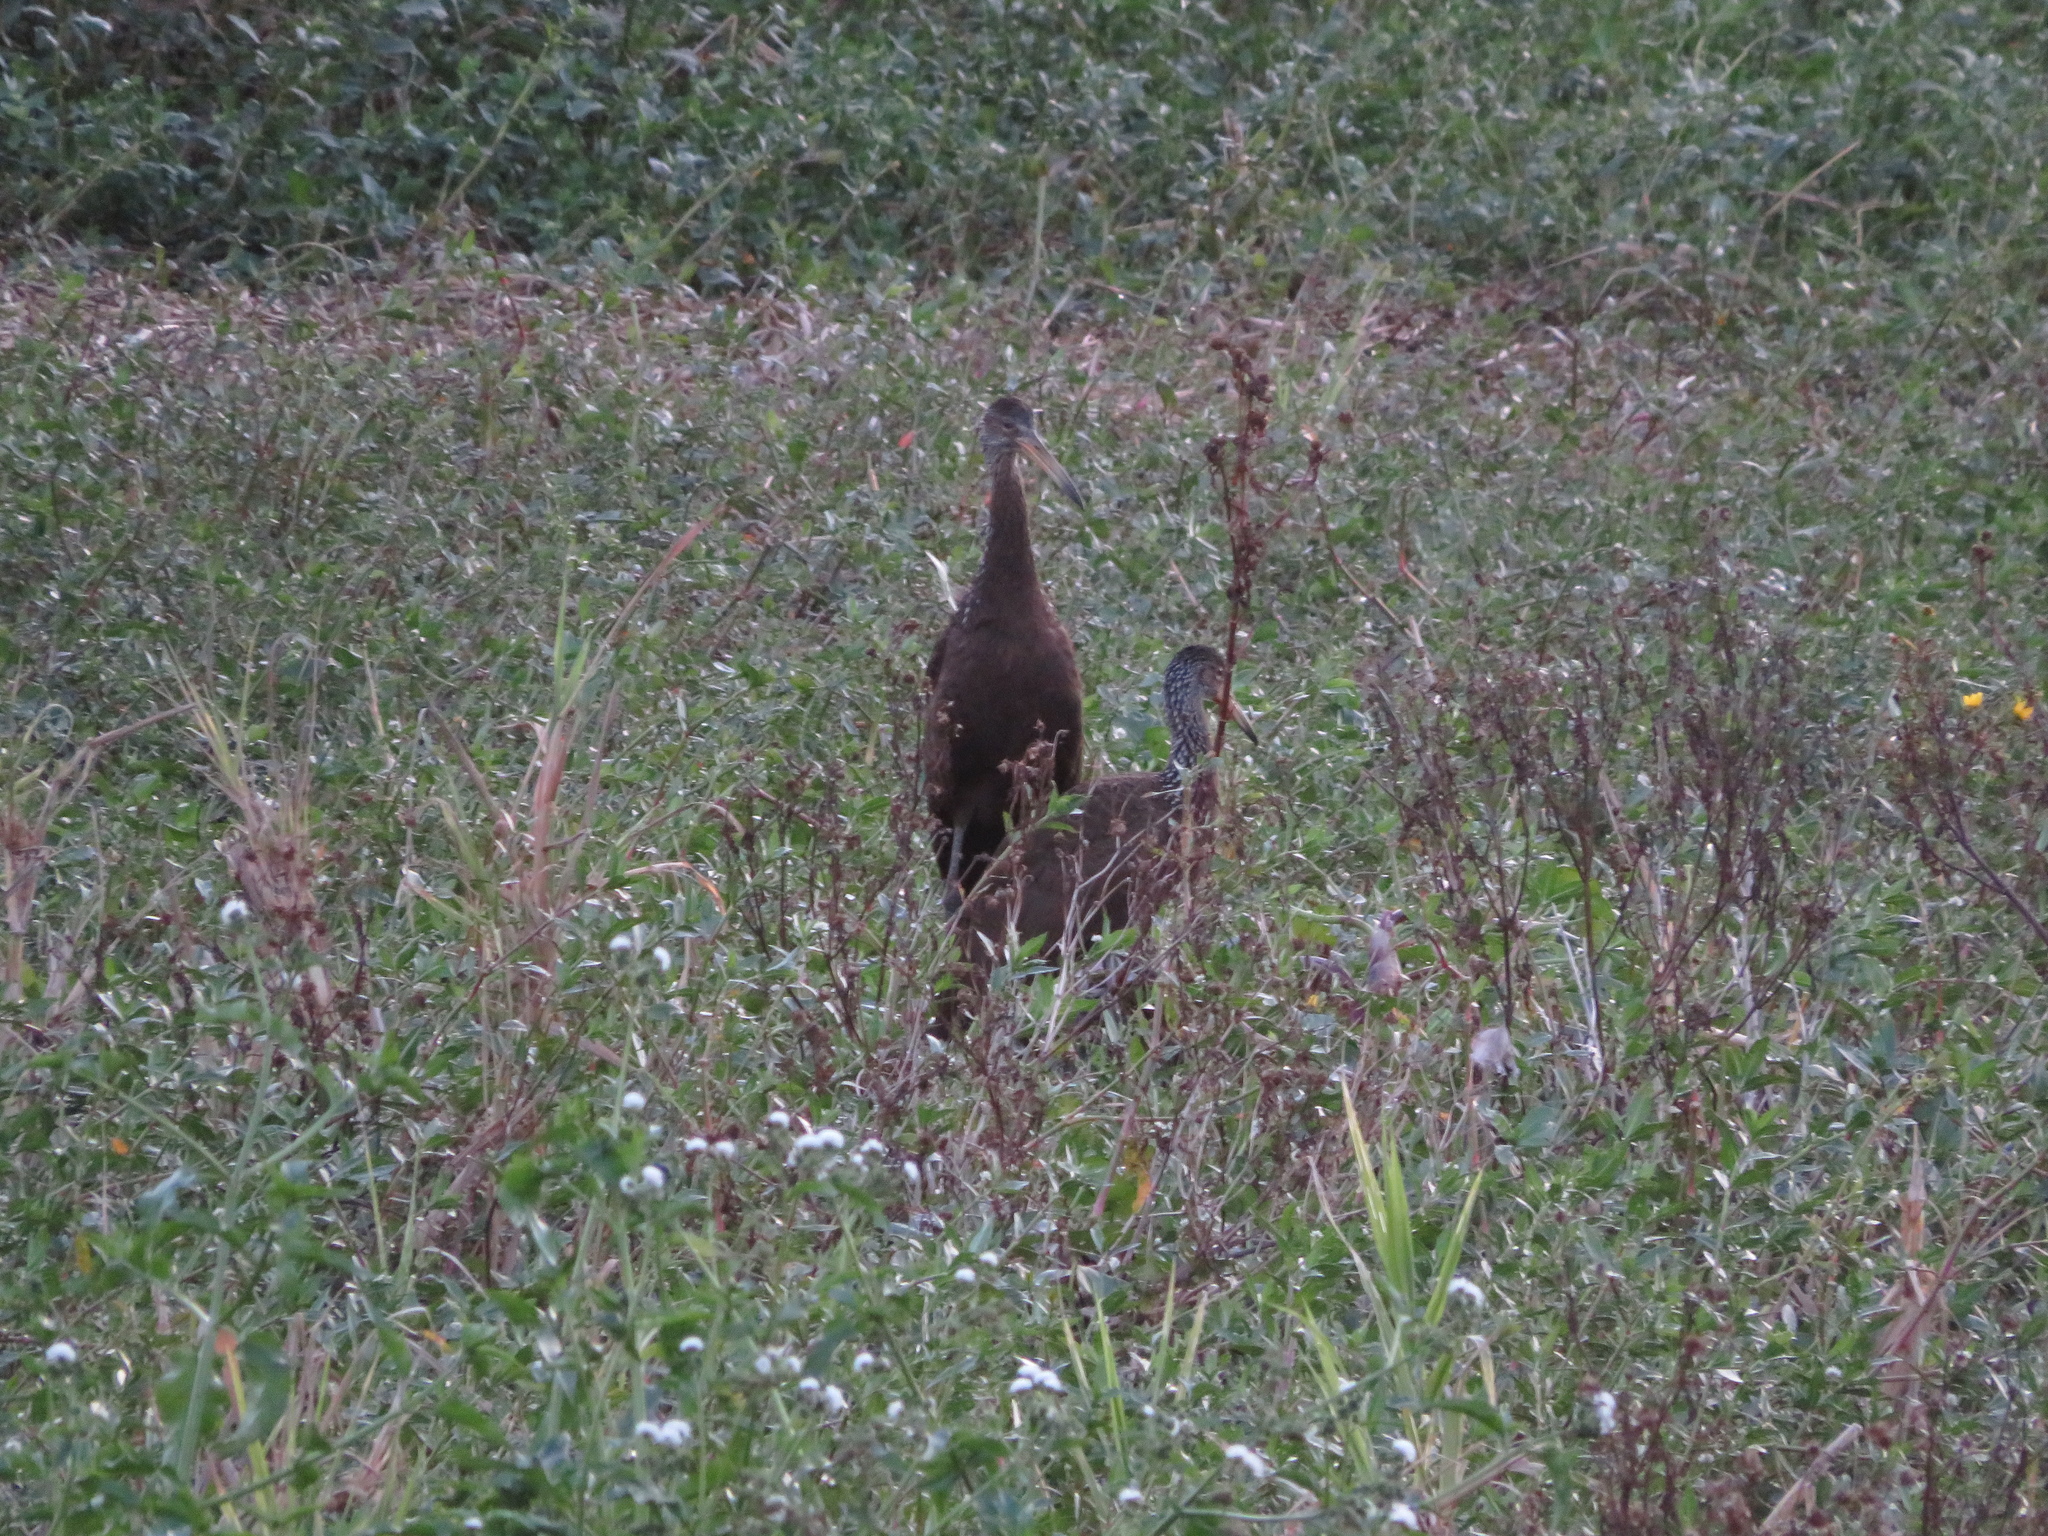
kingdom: Animalia
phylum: Chordata
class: Aves
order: Gruiformes
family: Aramidae
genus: Aramus
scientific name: Aramus guarauna
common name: Limpkin
